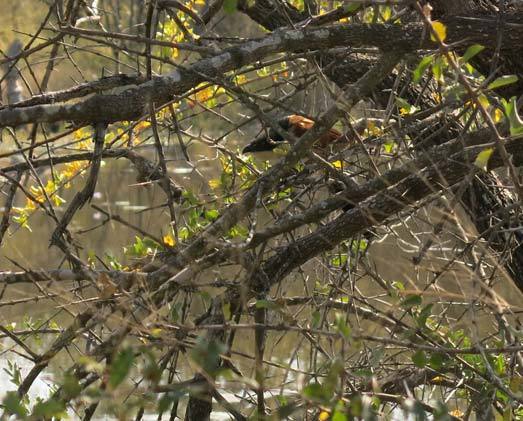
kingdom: Animalia
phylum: Chordata
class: Aves
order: Cuculiformes
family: Cuculidae
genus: Centropus
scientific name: Centropus superciliosus
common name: White-browed coucal
